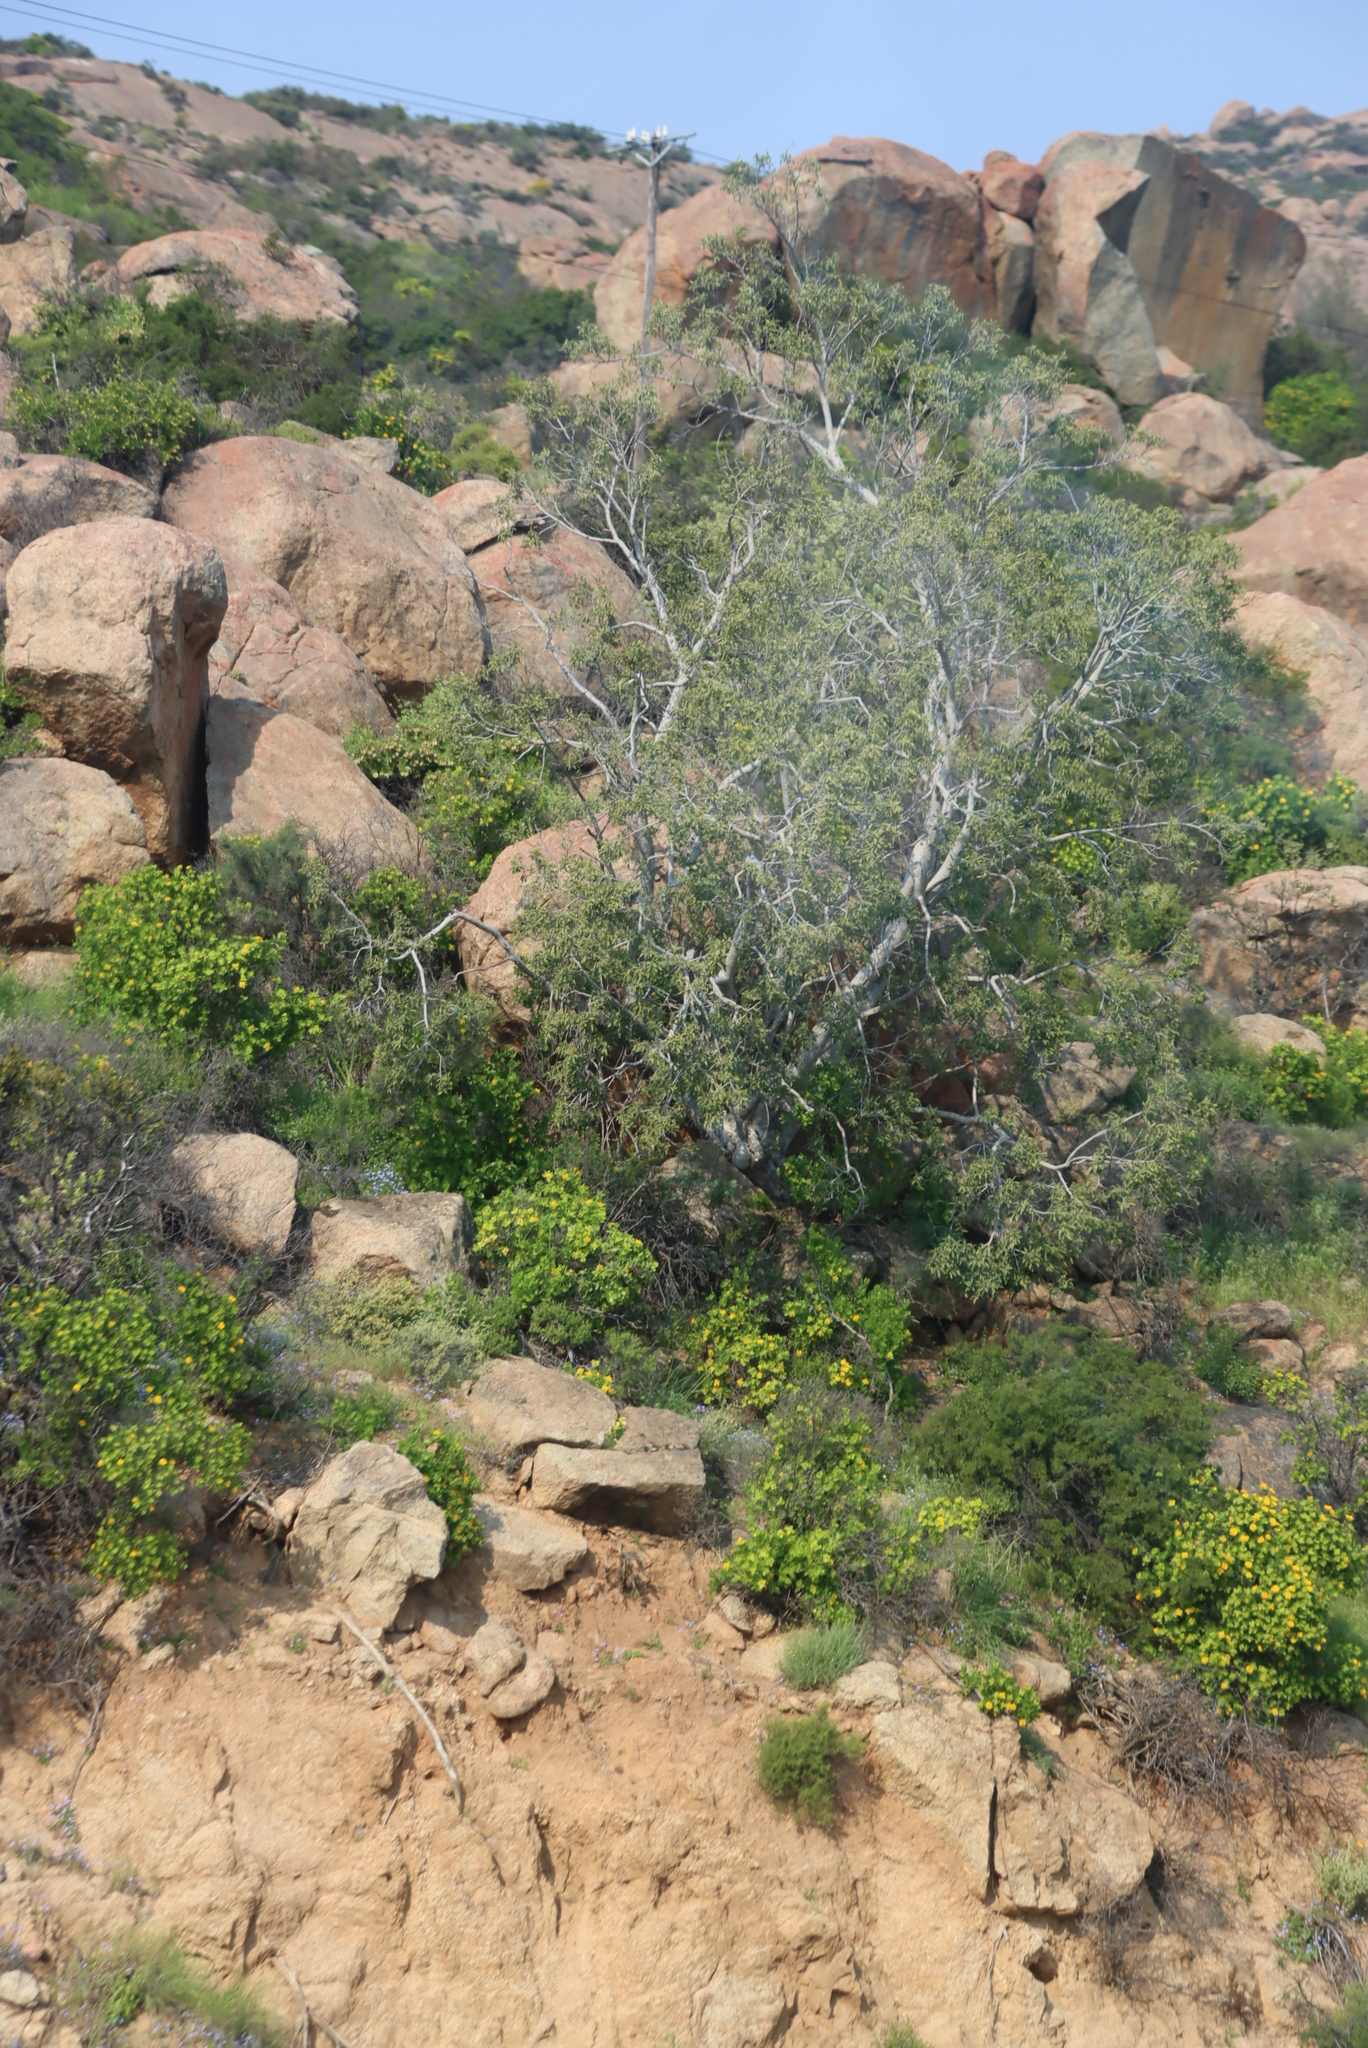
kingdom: Plantae
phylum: Tracheophyta
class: Magnoliopsida
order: Rosales
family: Moraceae
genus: Ficus
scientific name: Ficus cordata
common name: Namaqua rock fig
